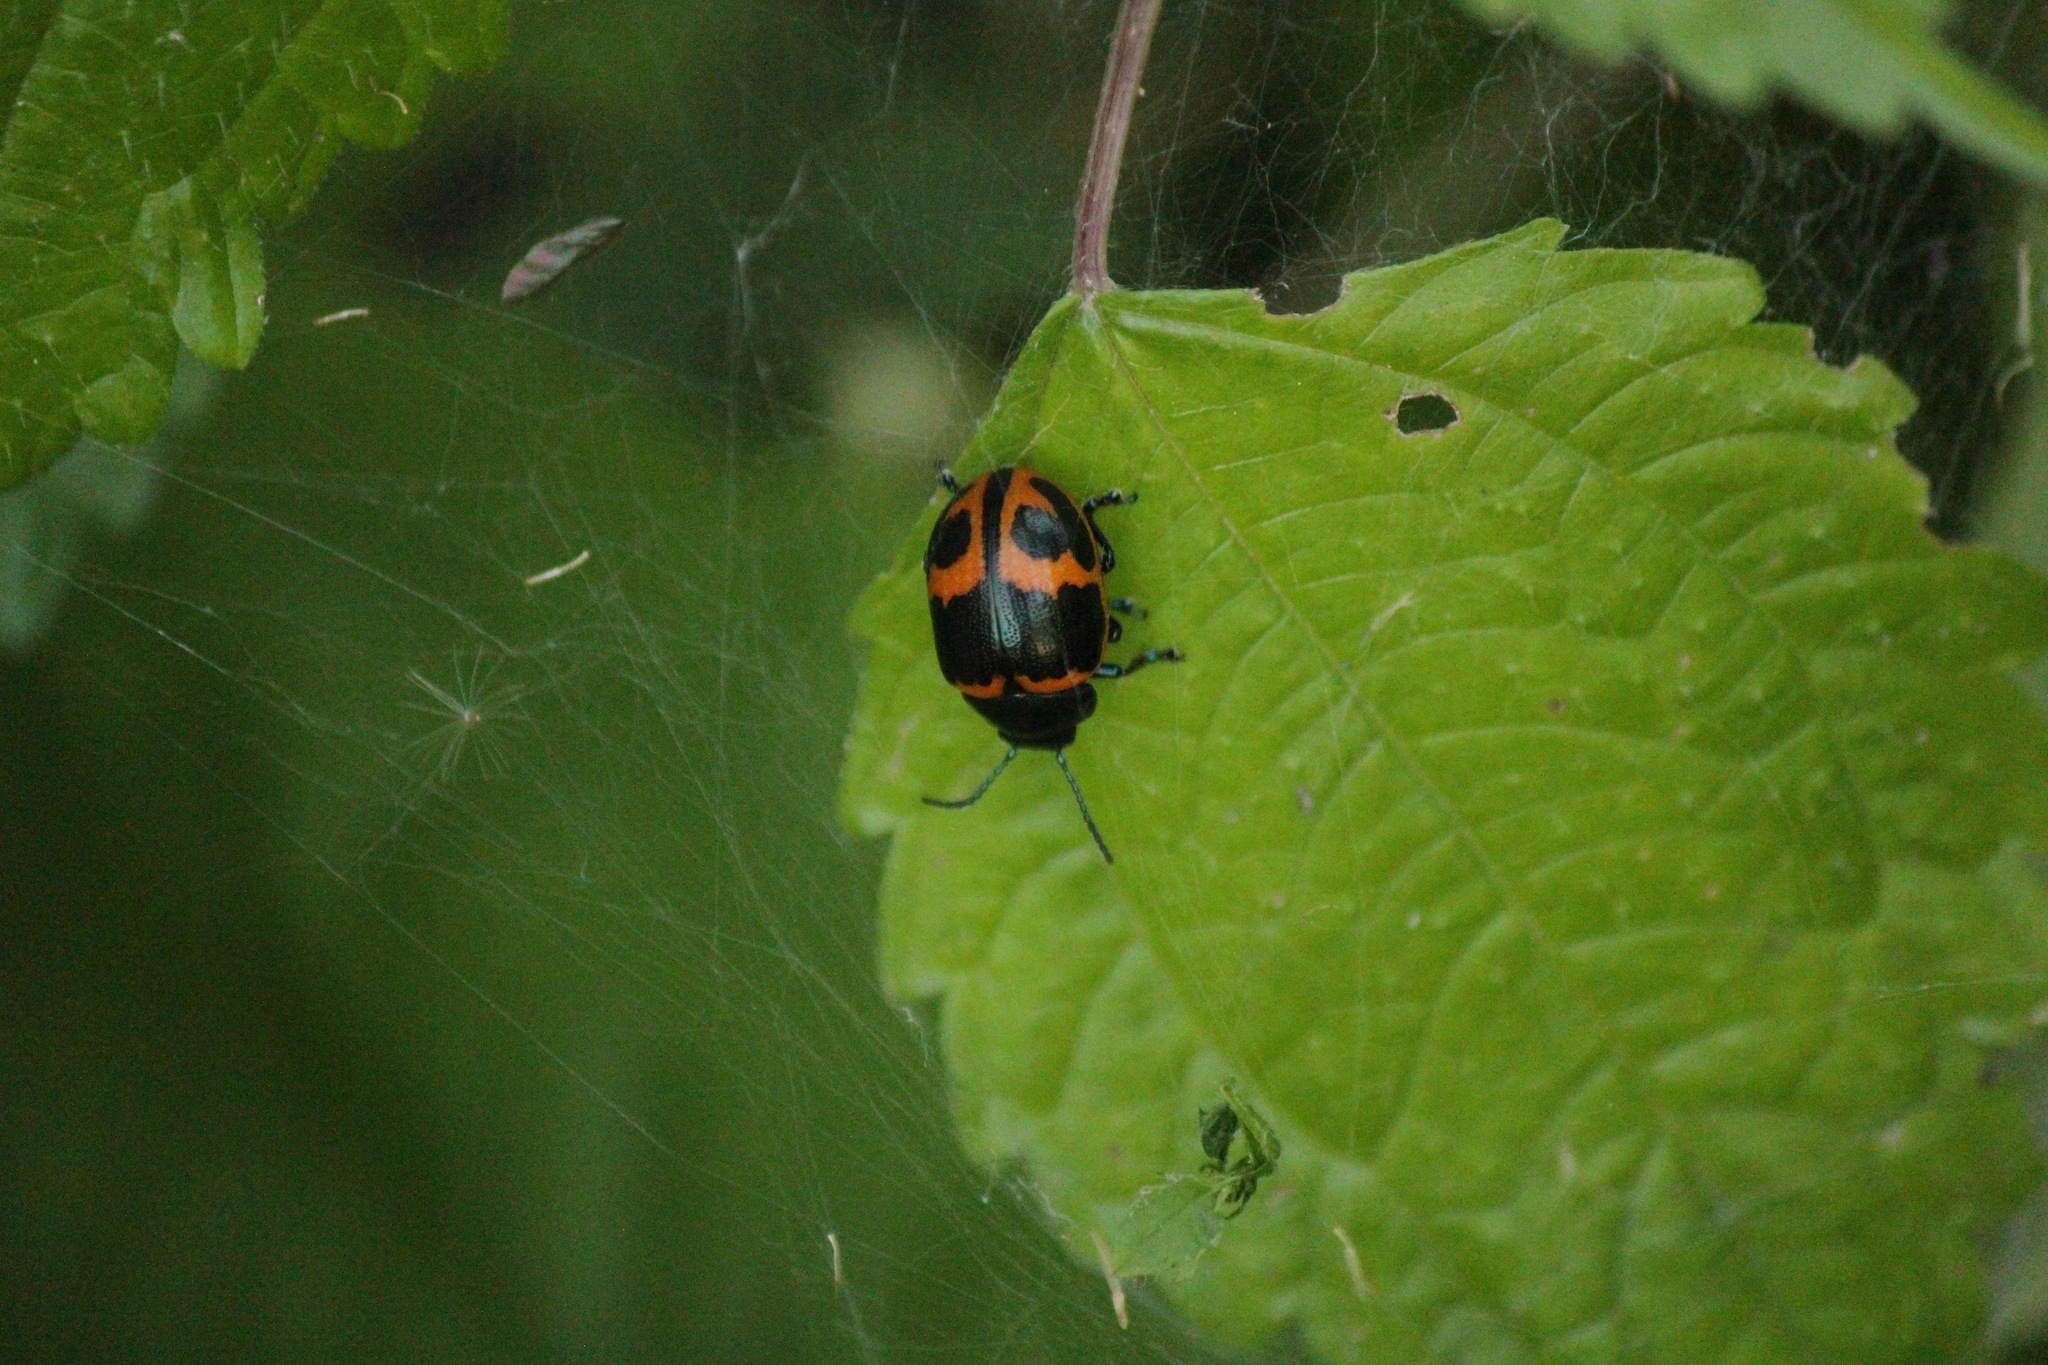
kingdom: Animalia
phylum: Arthropoda
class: Insecta
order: Coleoptera
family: Chrysomelidae
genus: Labidomera
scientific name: Labidomera clivicollis
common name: Swamp milkweed leaf beetle
